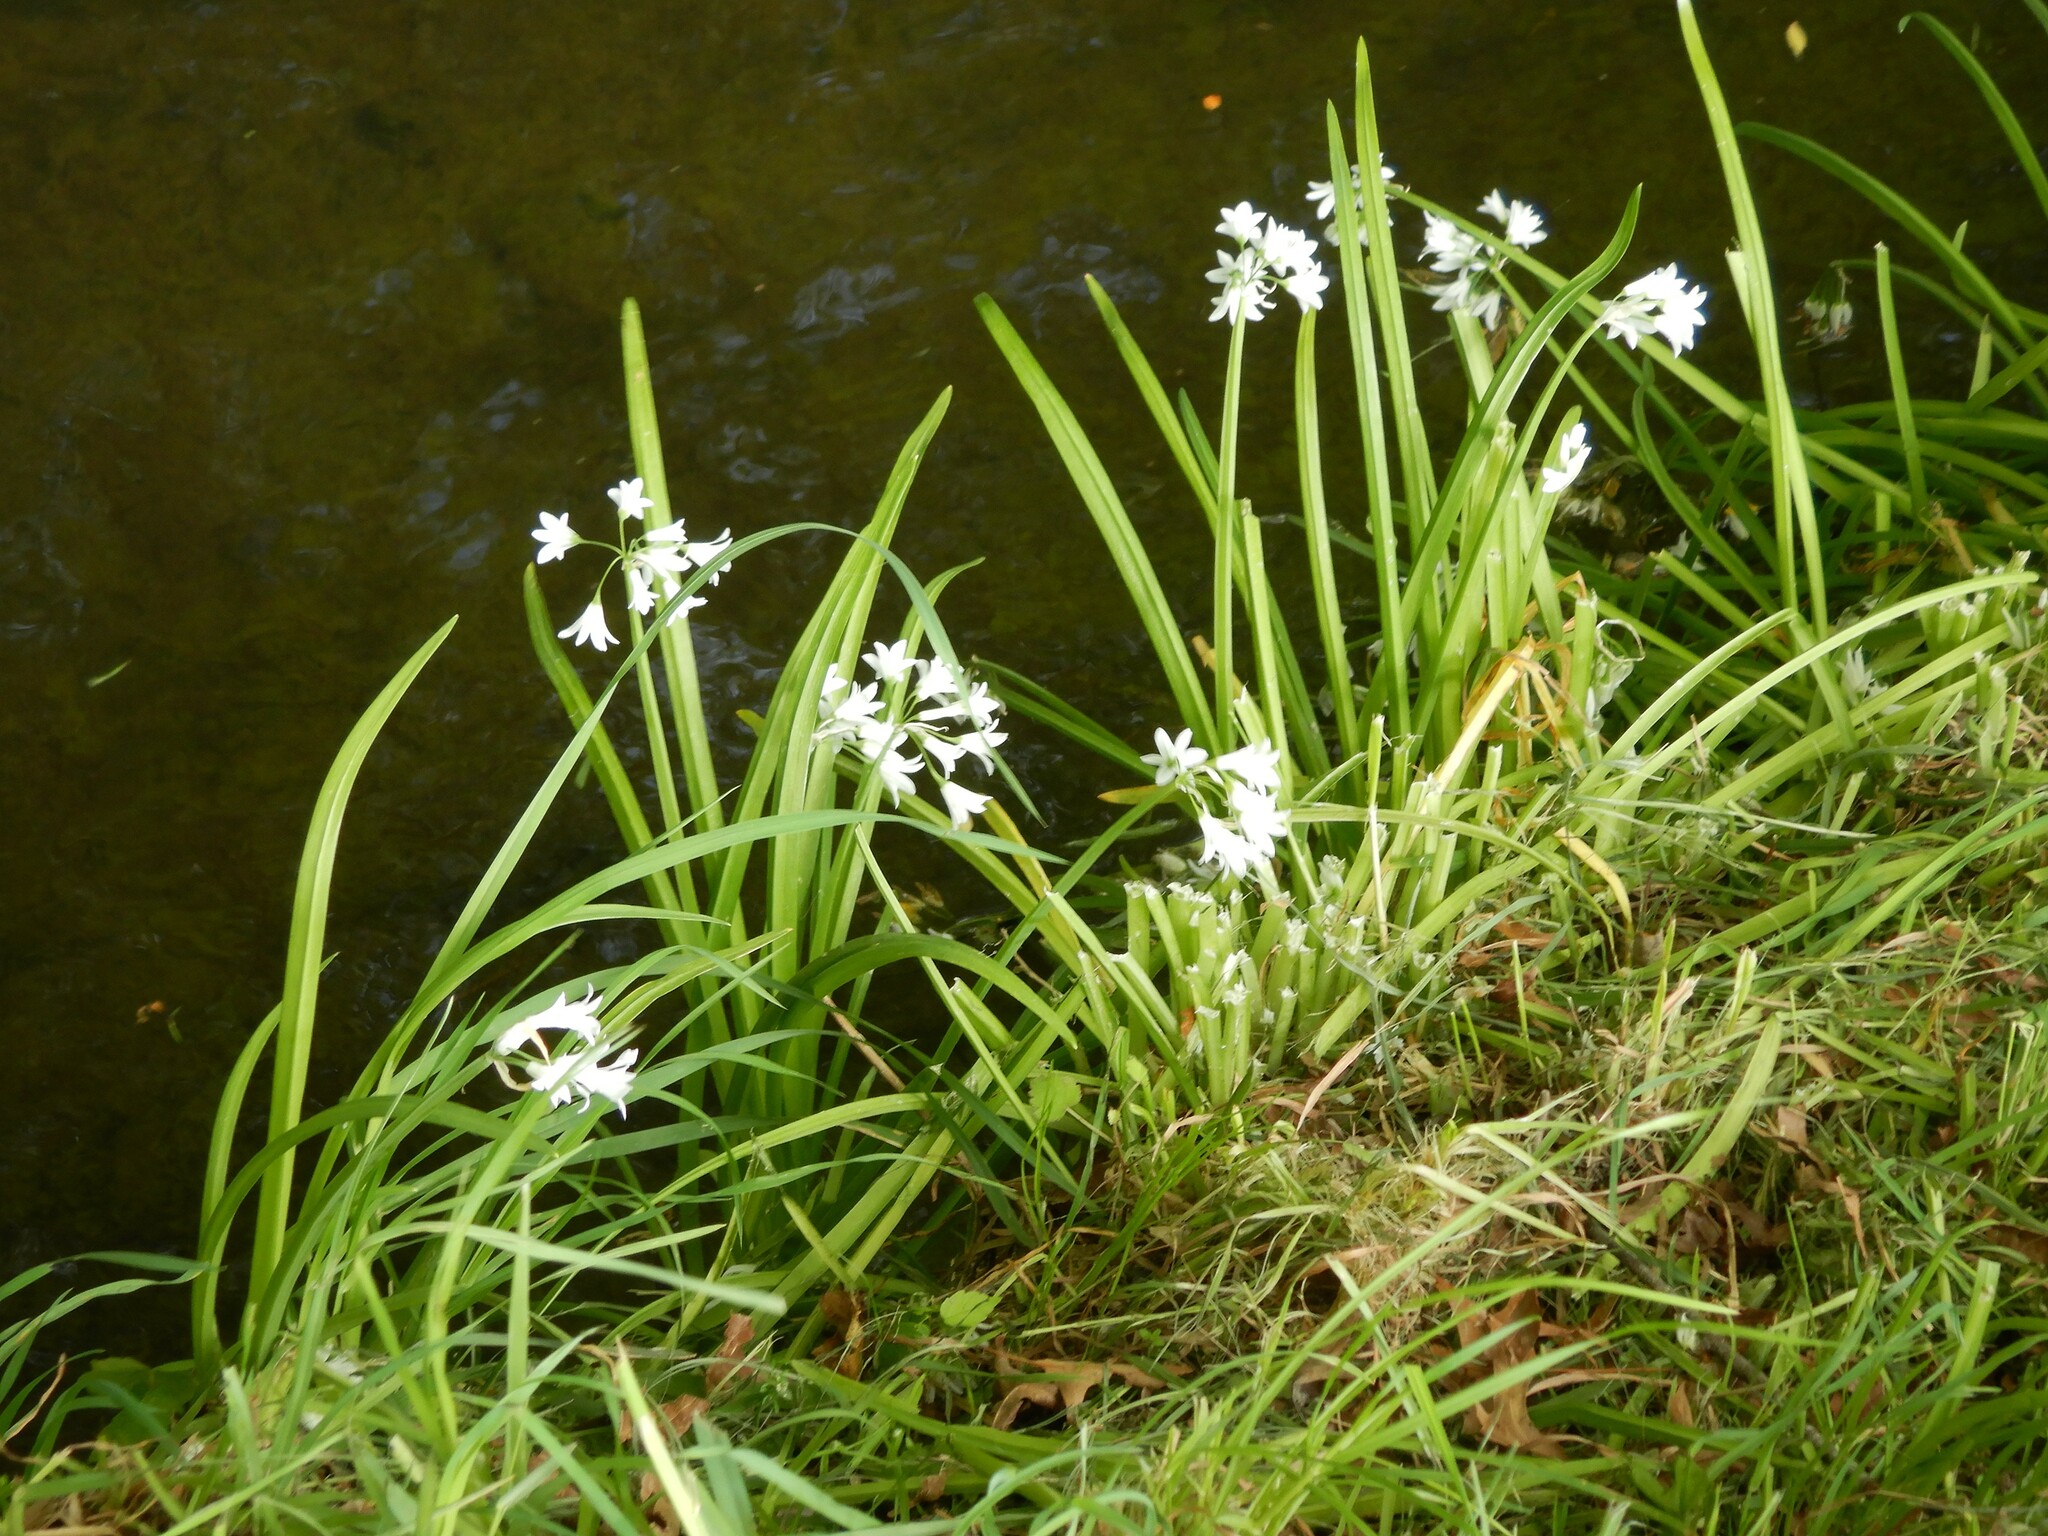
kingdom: Plantae
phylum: Tracheophyta
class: Liliopsida
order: Asparagales
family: Amaryllidaceae
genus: Allium
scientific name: Allium triquetrum
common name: Three-cornered garlic
